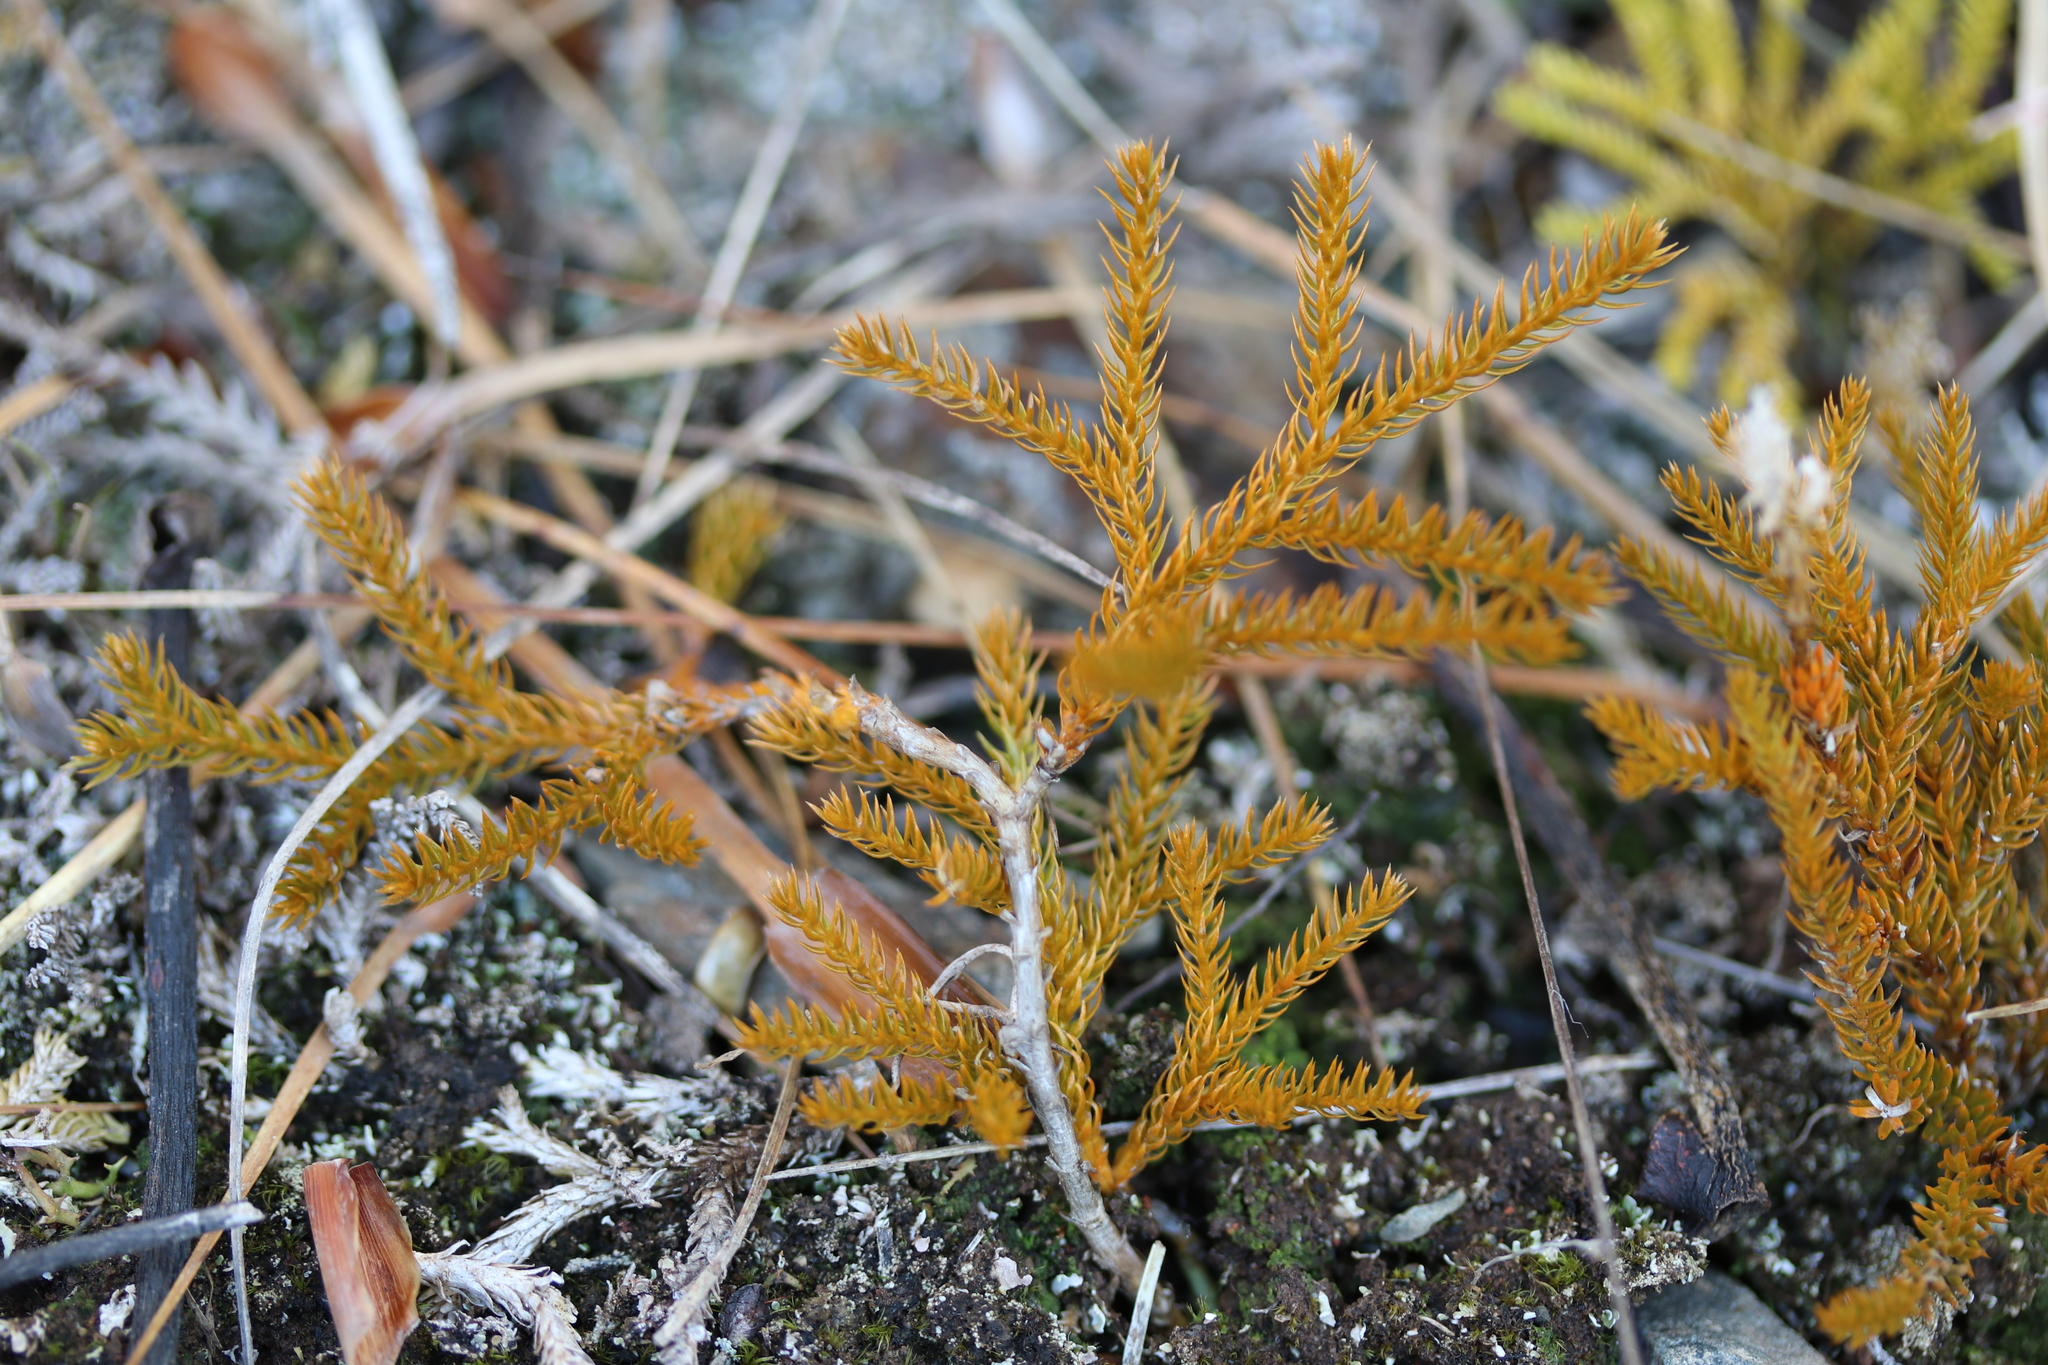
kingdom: Plantae
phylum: Tracheophyta
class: Lycopodiopsida
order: Lycopodiales
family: Lycopodiaceae
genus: Austrolycopodium
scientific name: Austrolycopodium fastigiatum
